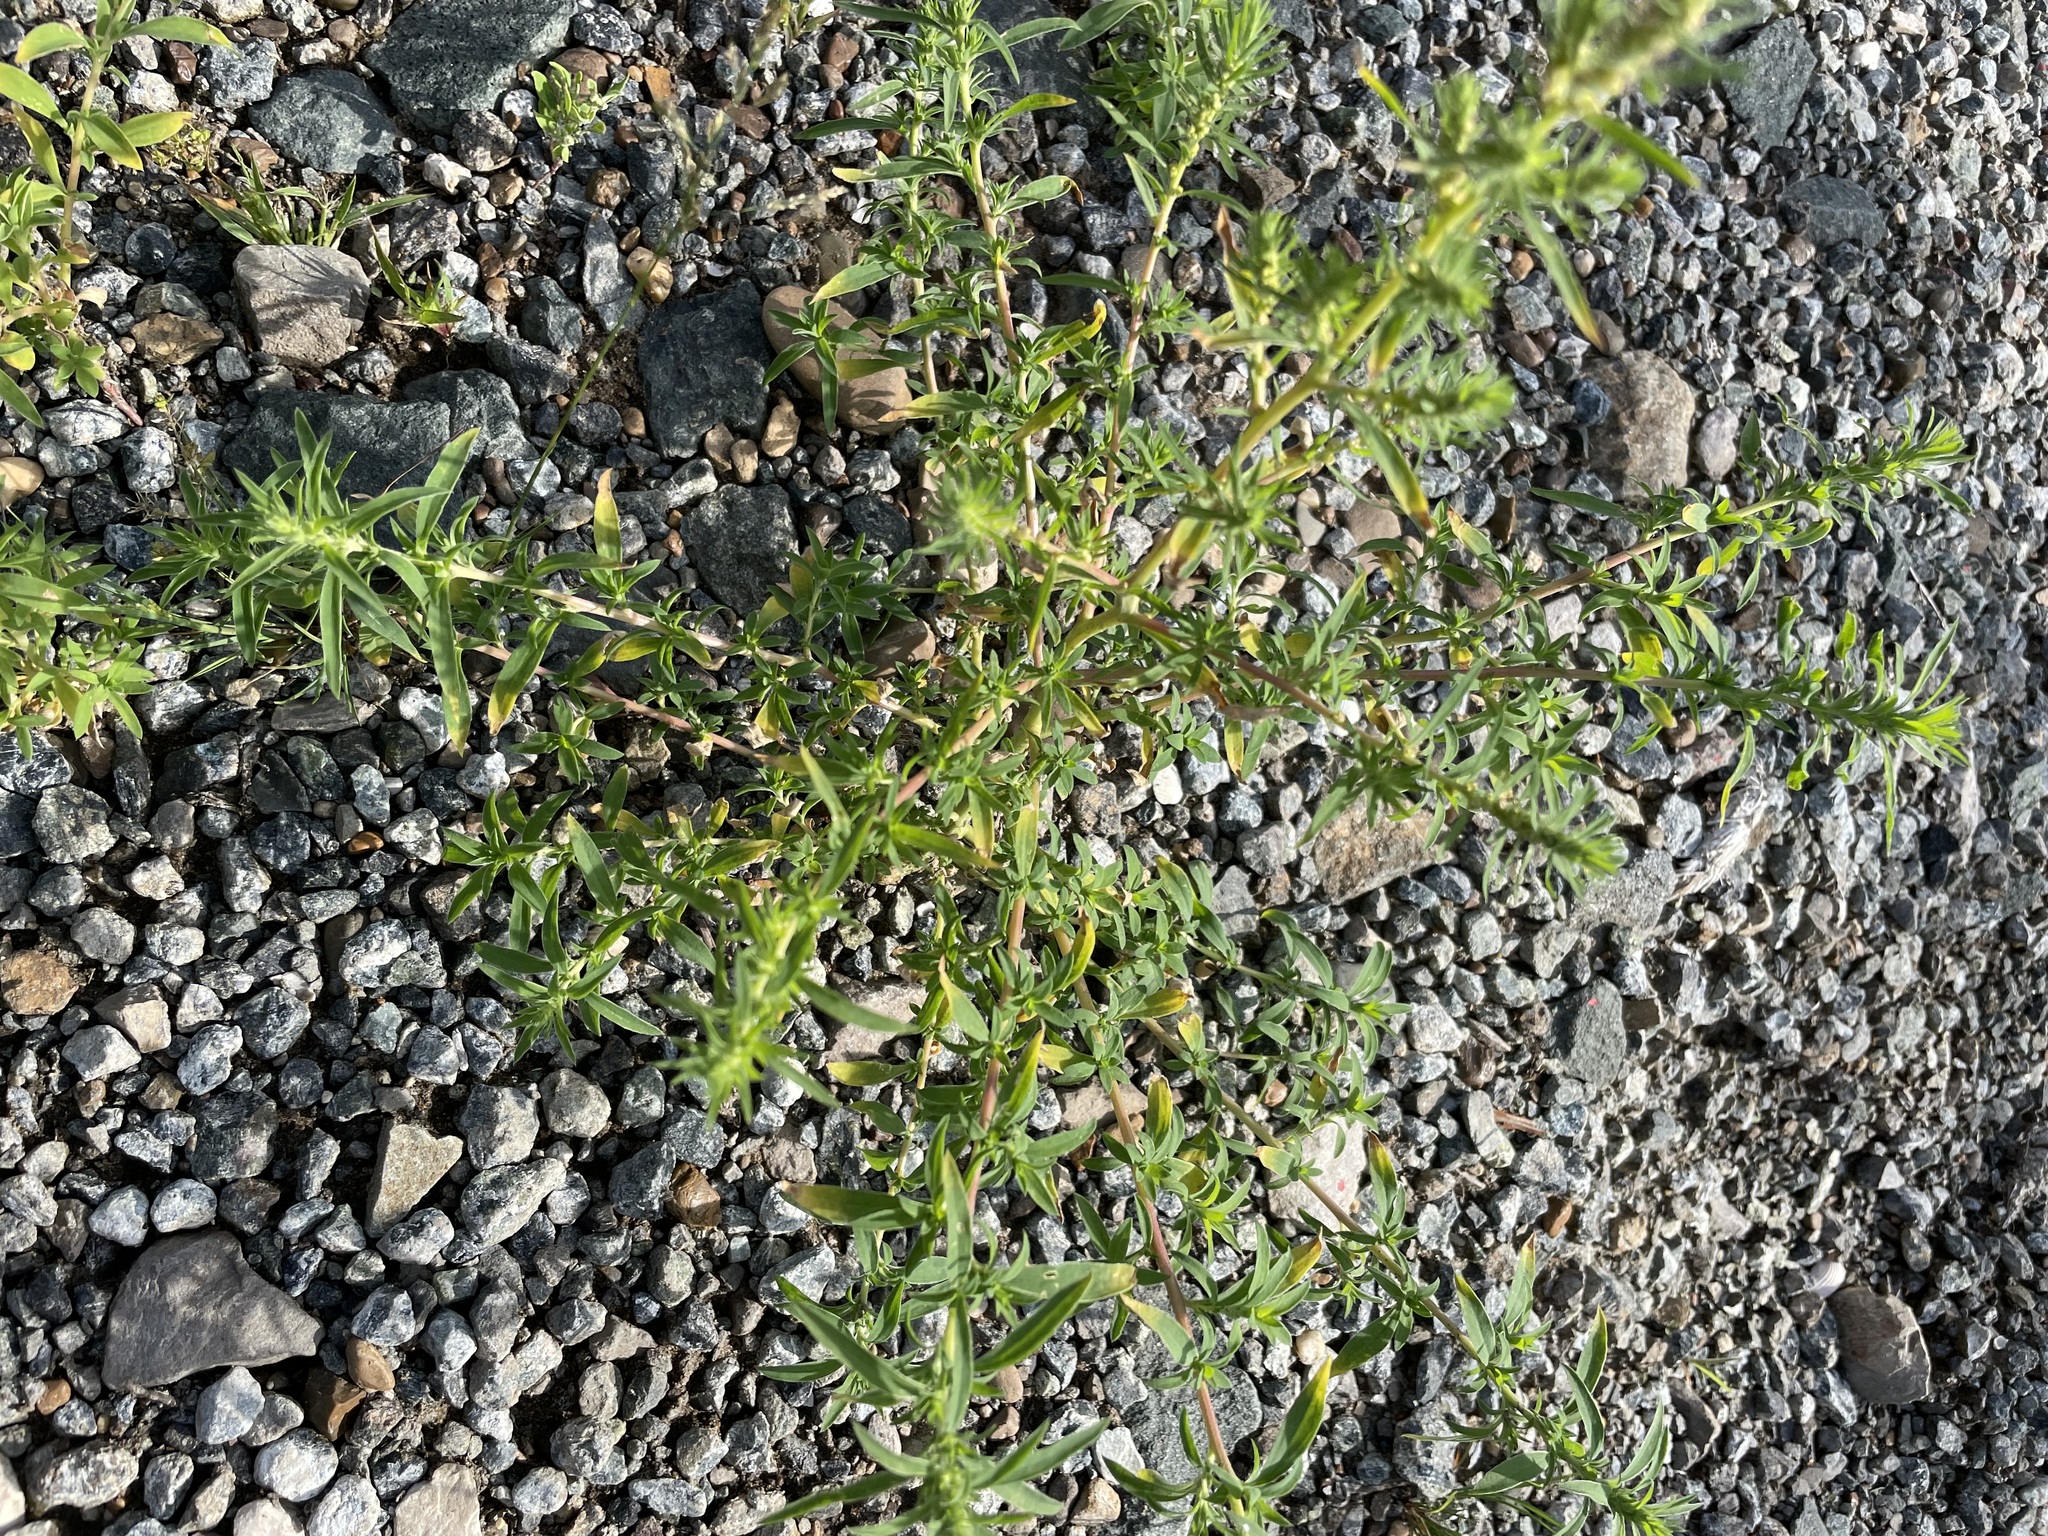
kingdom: Plantae
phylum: Tracheophyta
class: Magnoliopsida
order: Caryophyllales
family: Amaranthaceae
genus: Bassia
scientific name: Bassia scoparia
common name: Belvedere
